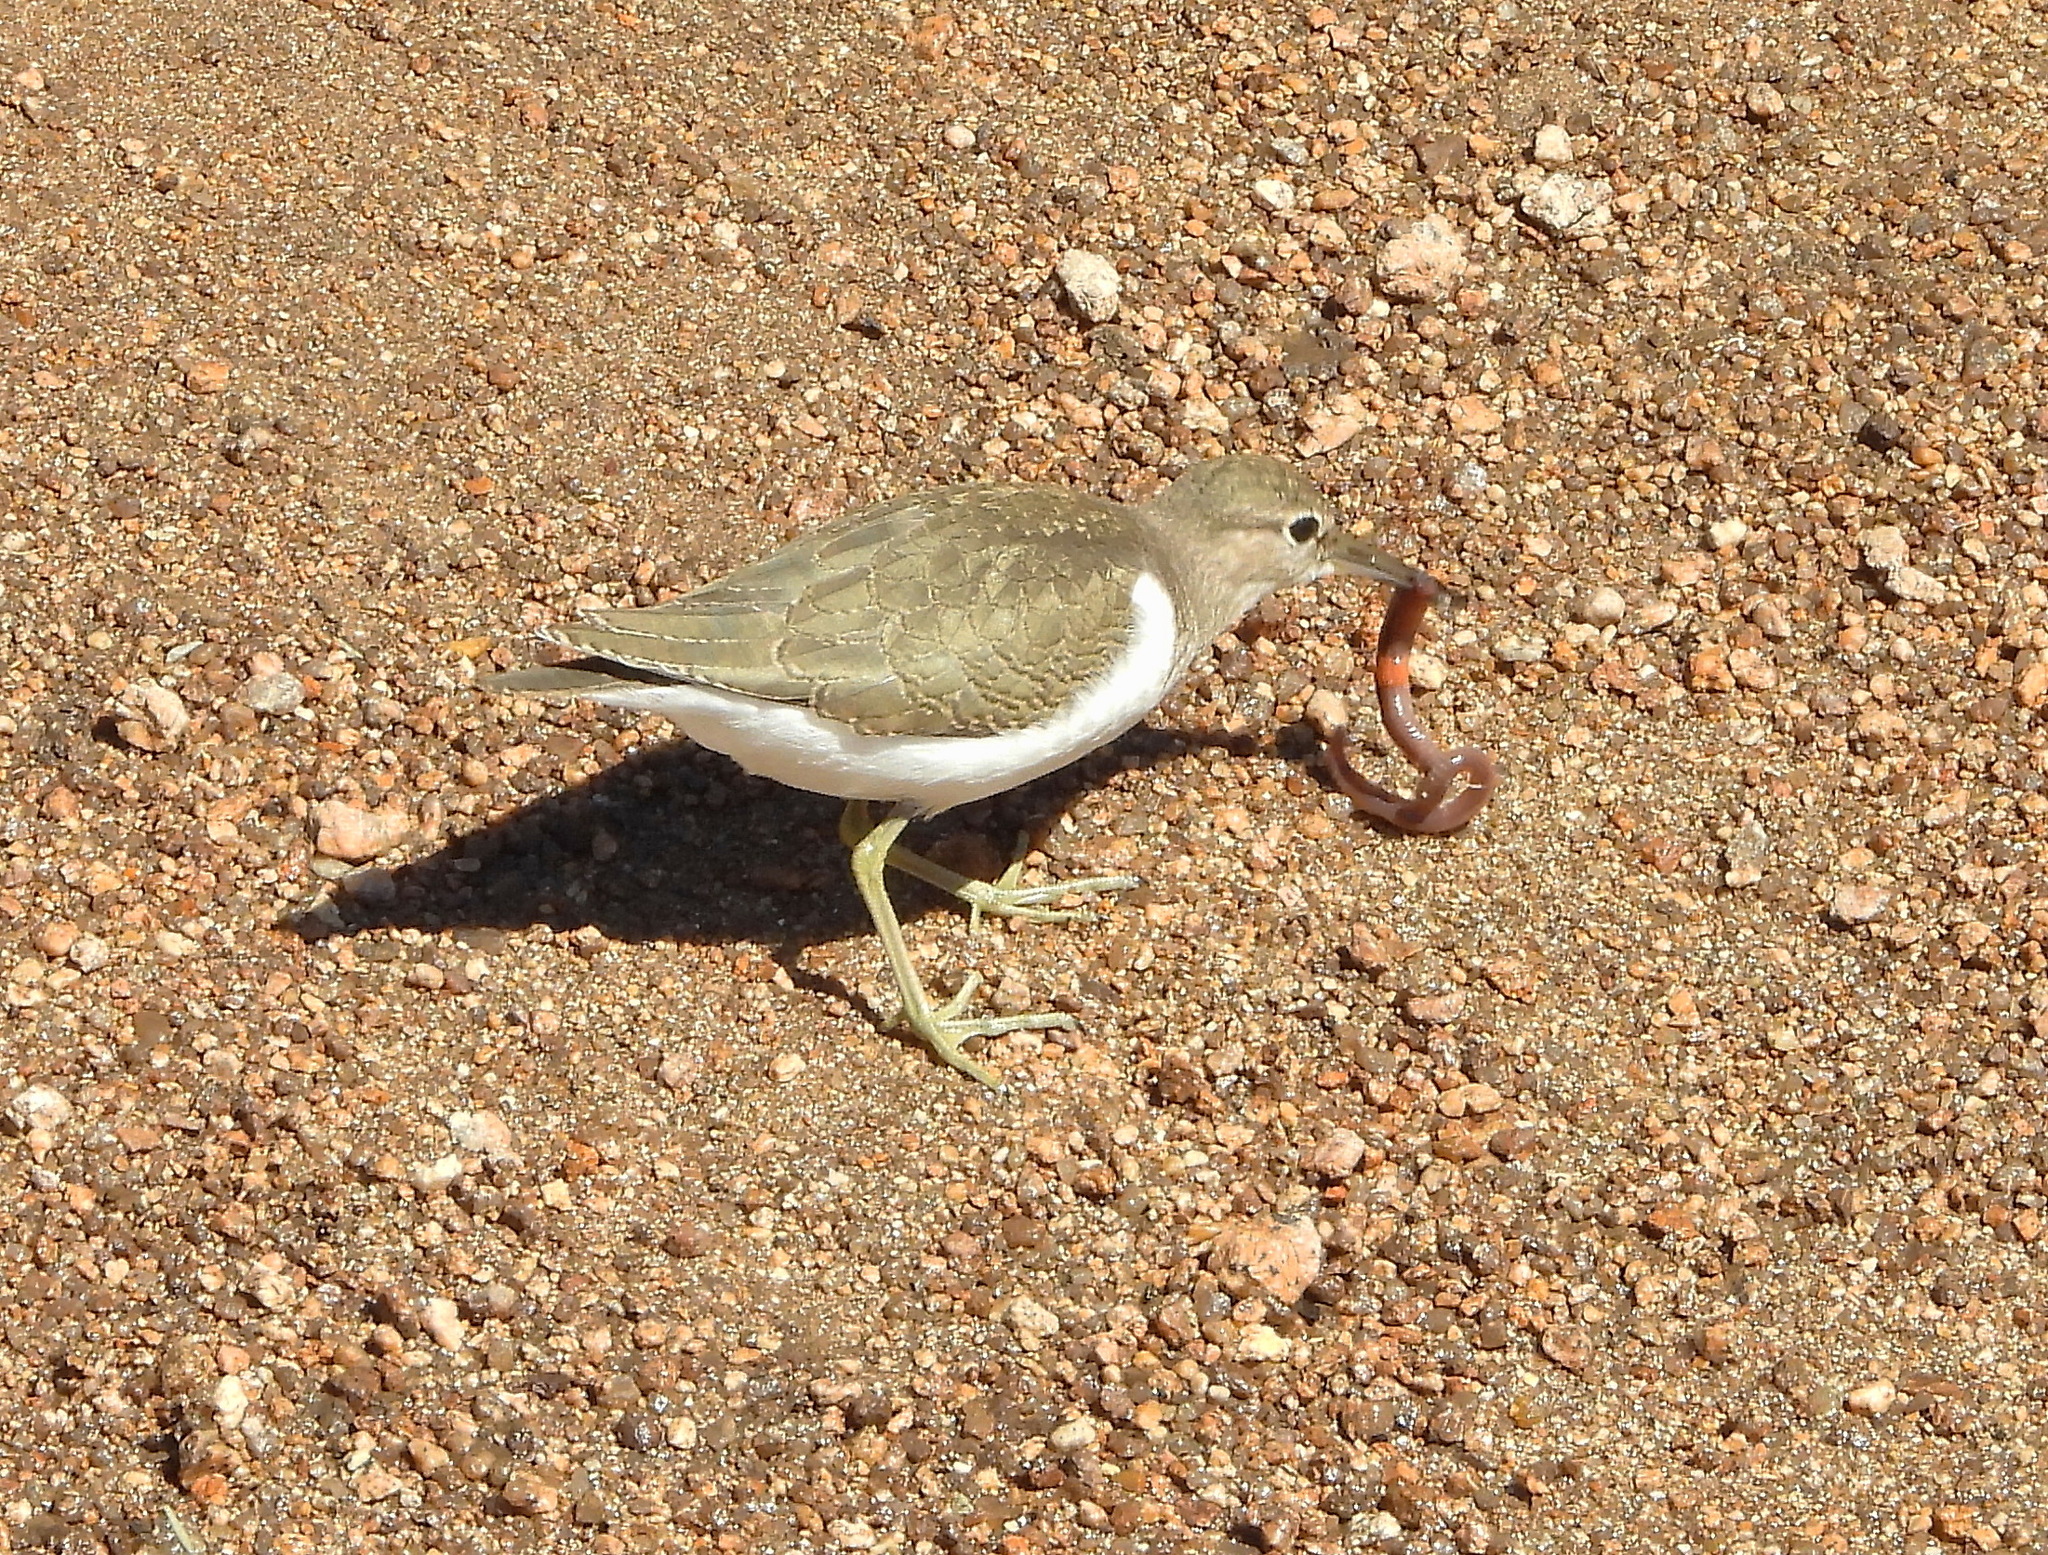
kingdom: Animalia
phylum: Chordata
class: Aves
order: Charadriiformes
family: Scolopacidae
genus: Actitis
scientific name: Actitis hypoleucos
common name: Common sandpiper
